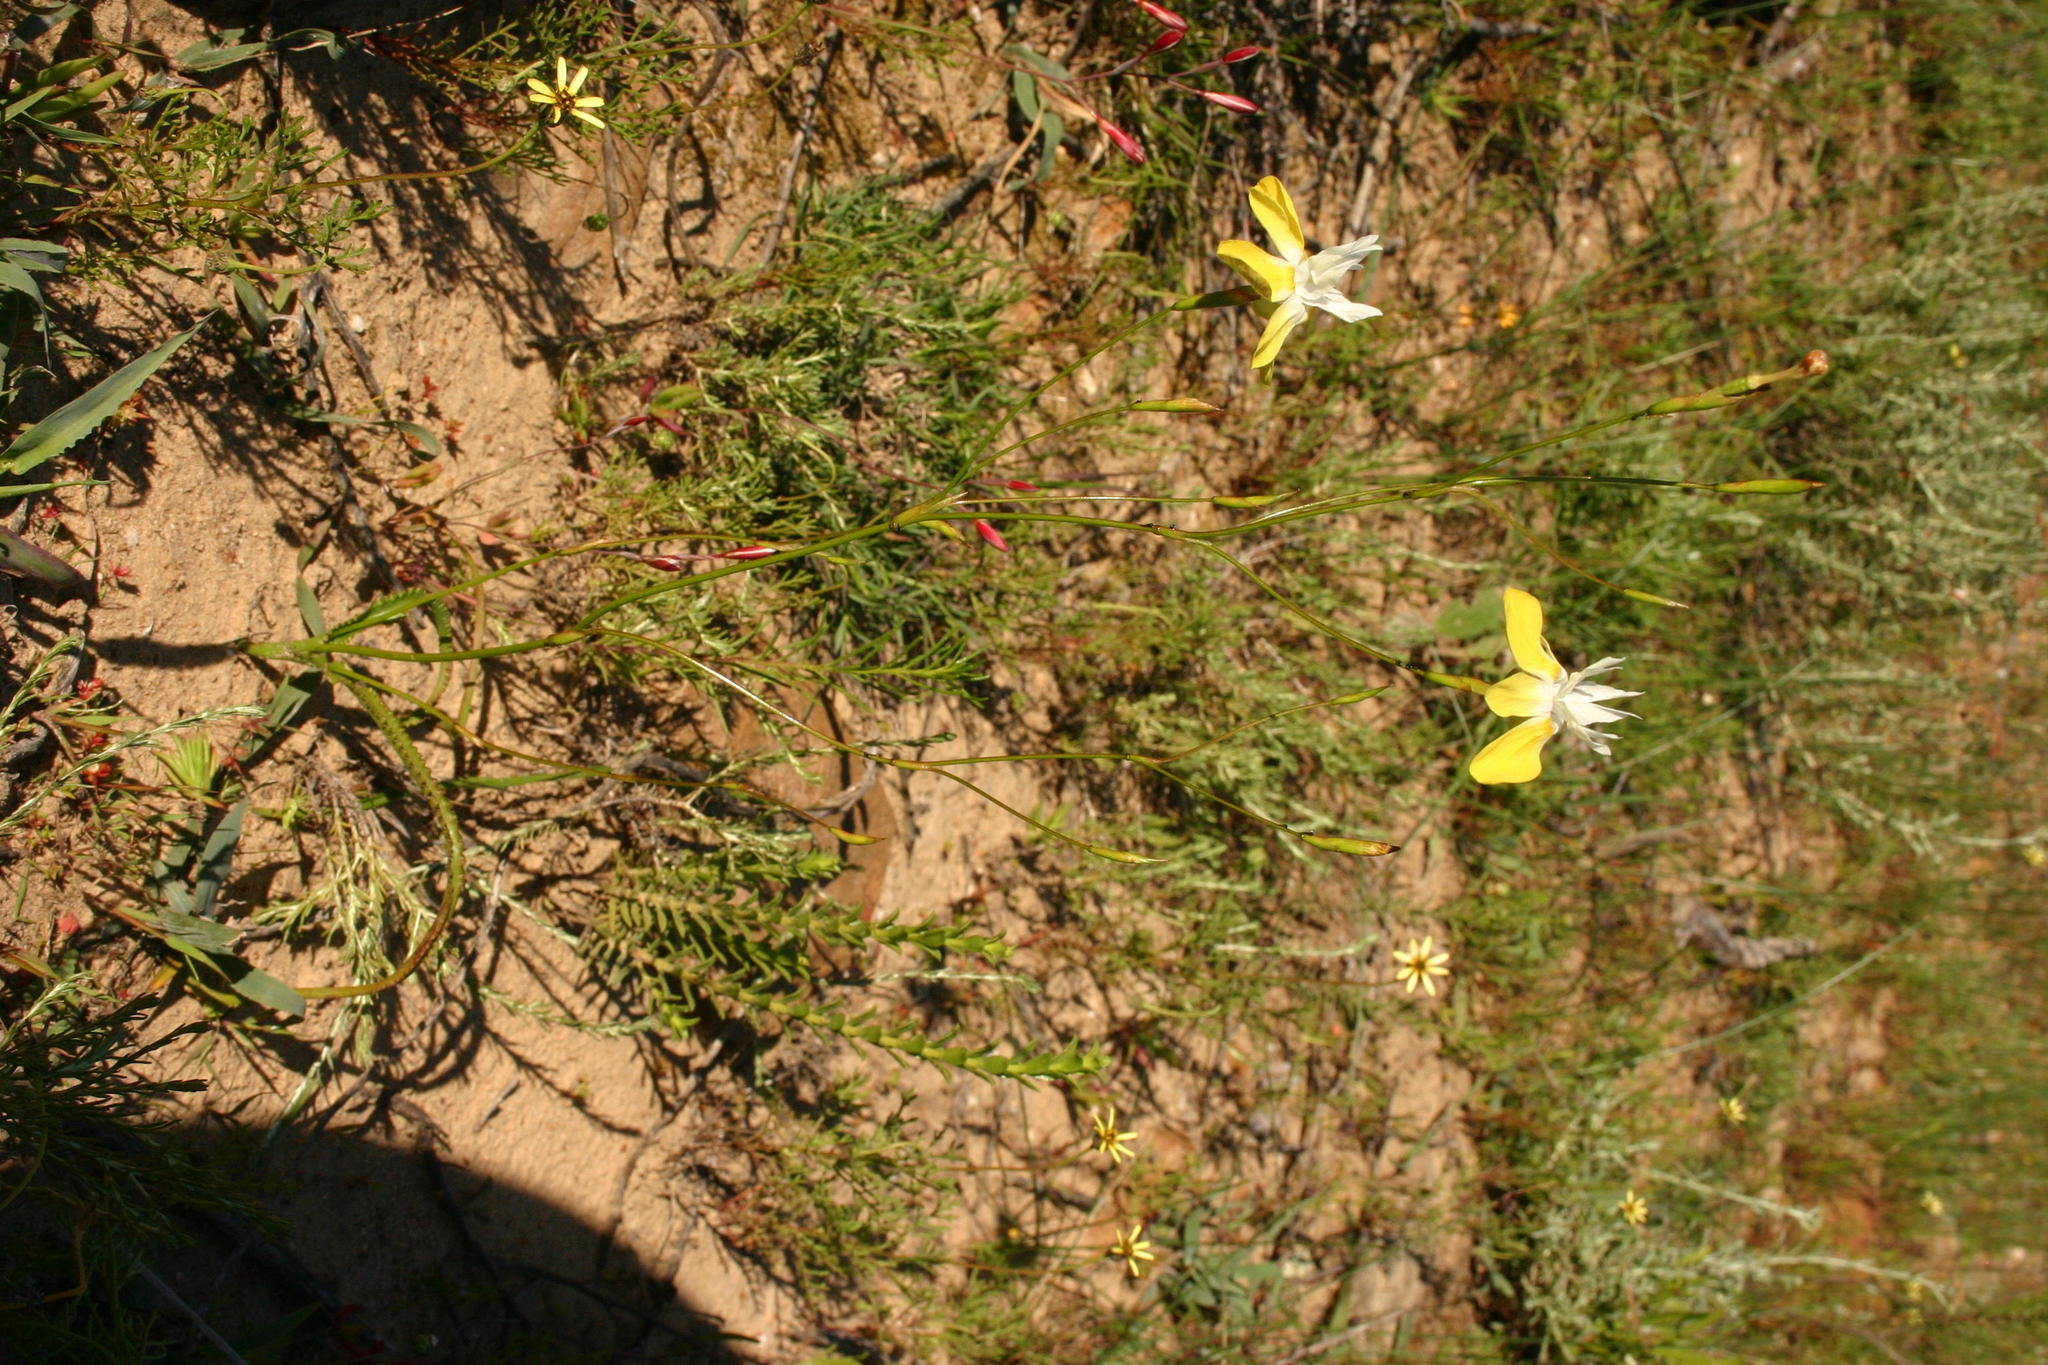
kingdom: Plantae
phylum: Tracheophyta
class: Liliopsida
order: Asparagales
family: Iridaceae
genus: Moraea
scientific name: Moraea gawleri
